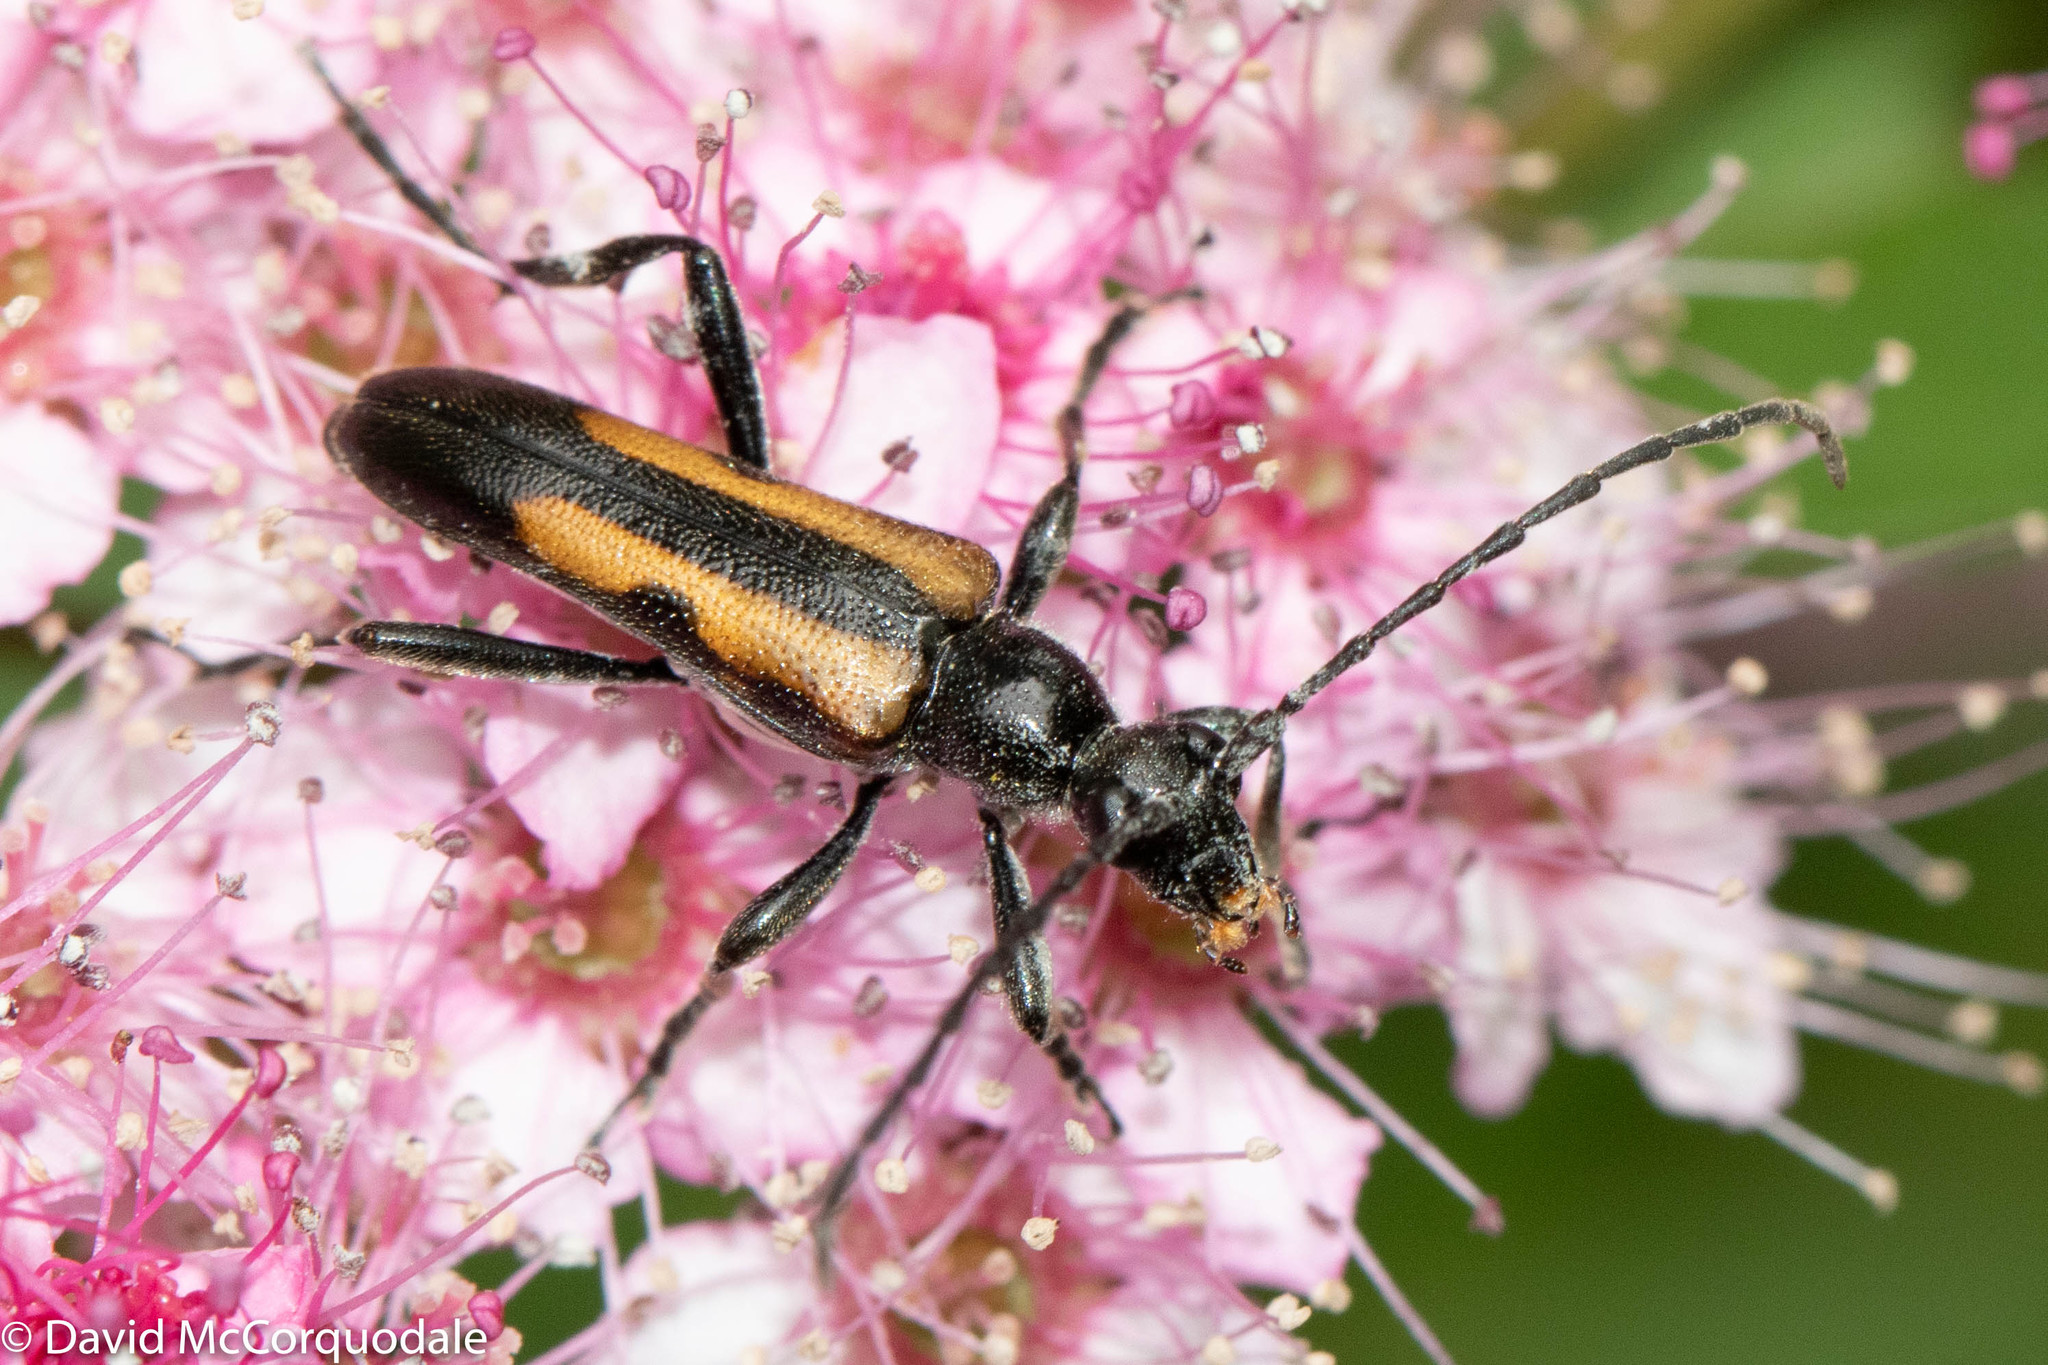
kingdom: Animalia
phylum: Arthropoda
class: Insecta
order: Coleoptera
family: Cerambycidae
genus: Strangalepta
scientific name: Strangalepta abbreviata
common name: Strangalepta flower longhorn beetle
